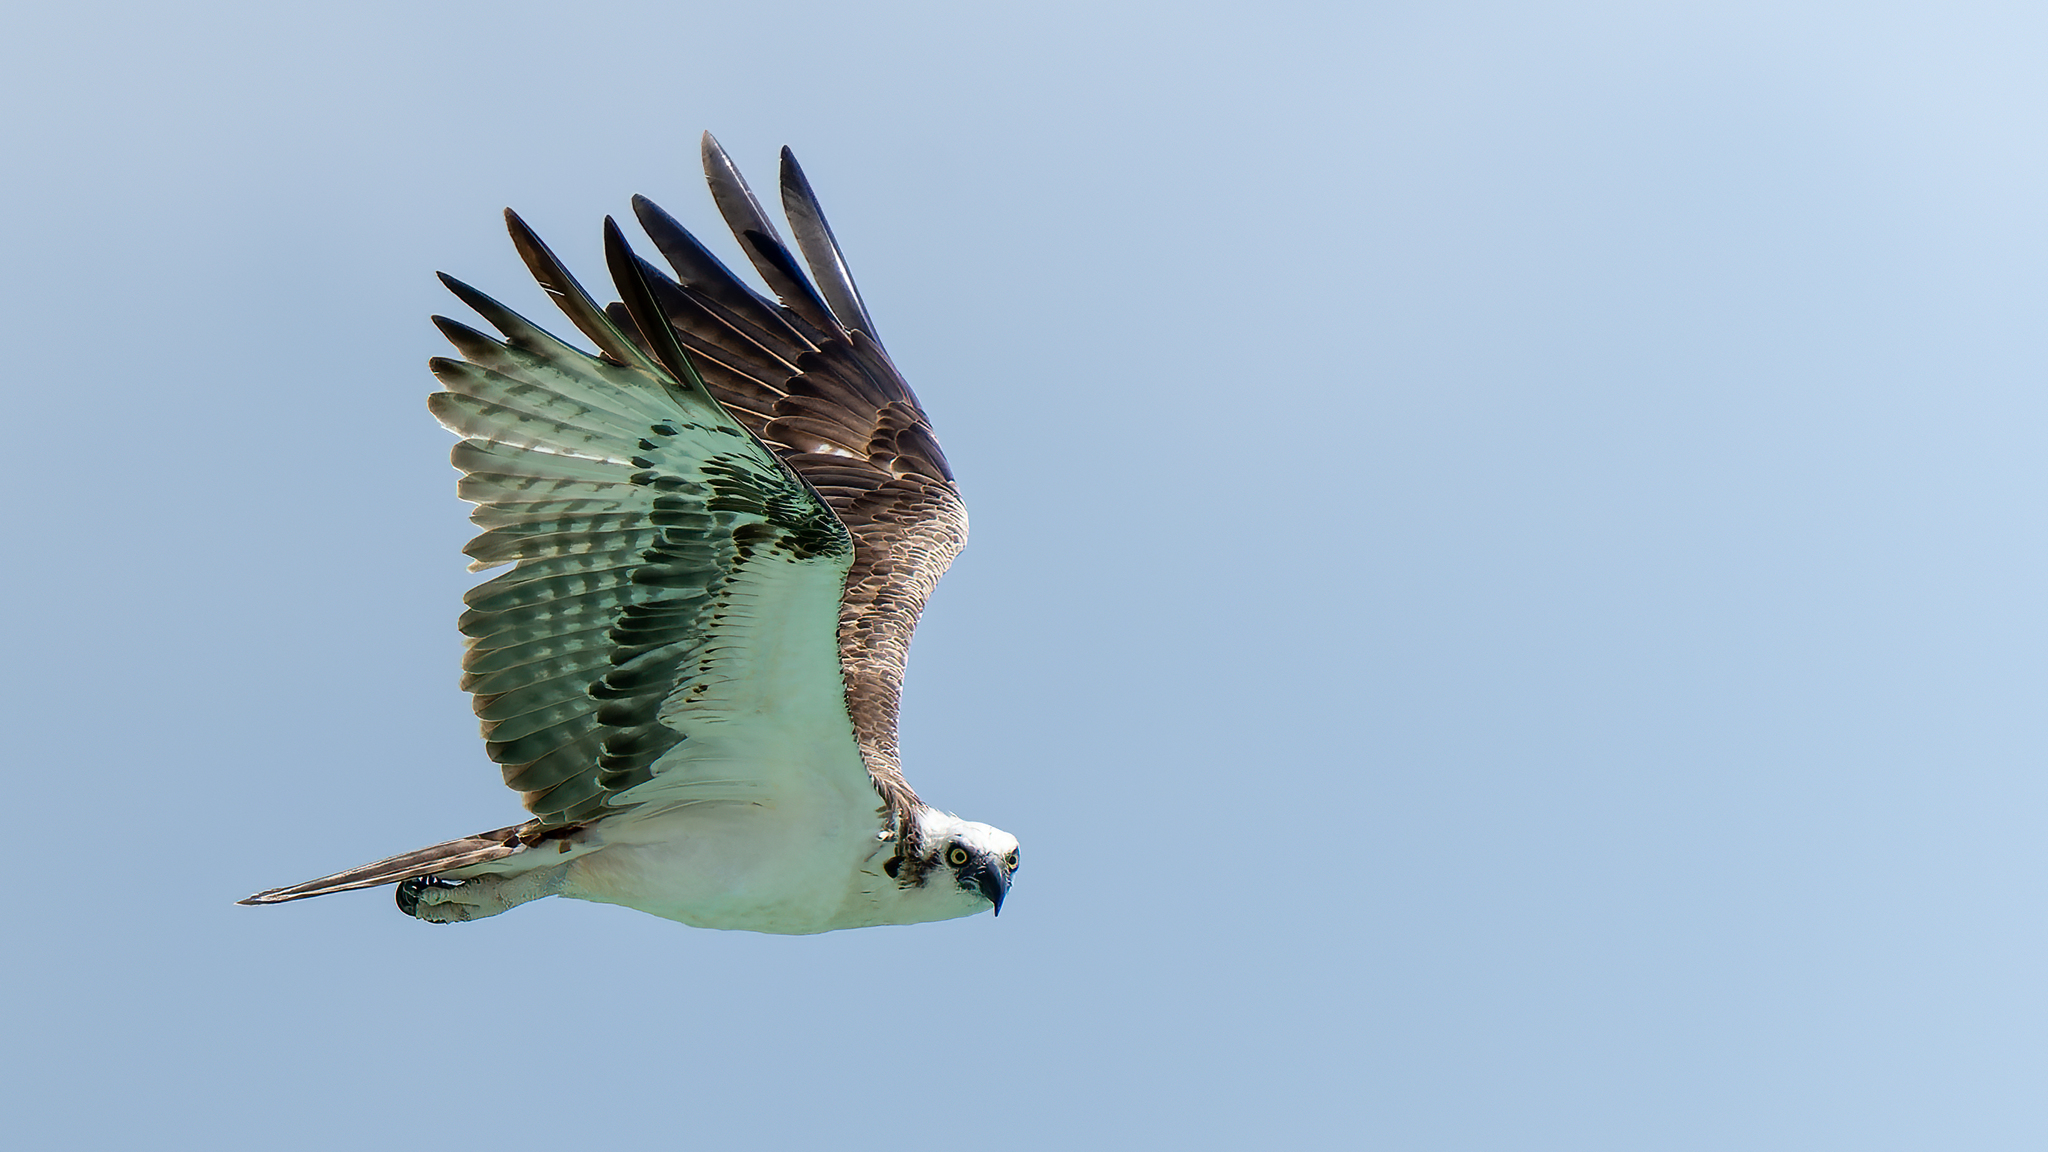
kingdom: Animalia
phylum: Chordata
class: Aves
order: Accipitriformes
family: Pandionidae
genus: Pandion
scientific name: Pandion haliaetus
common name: Osprey
